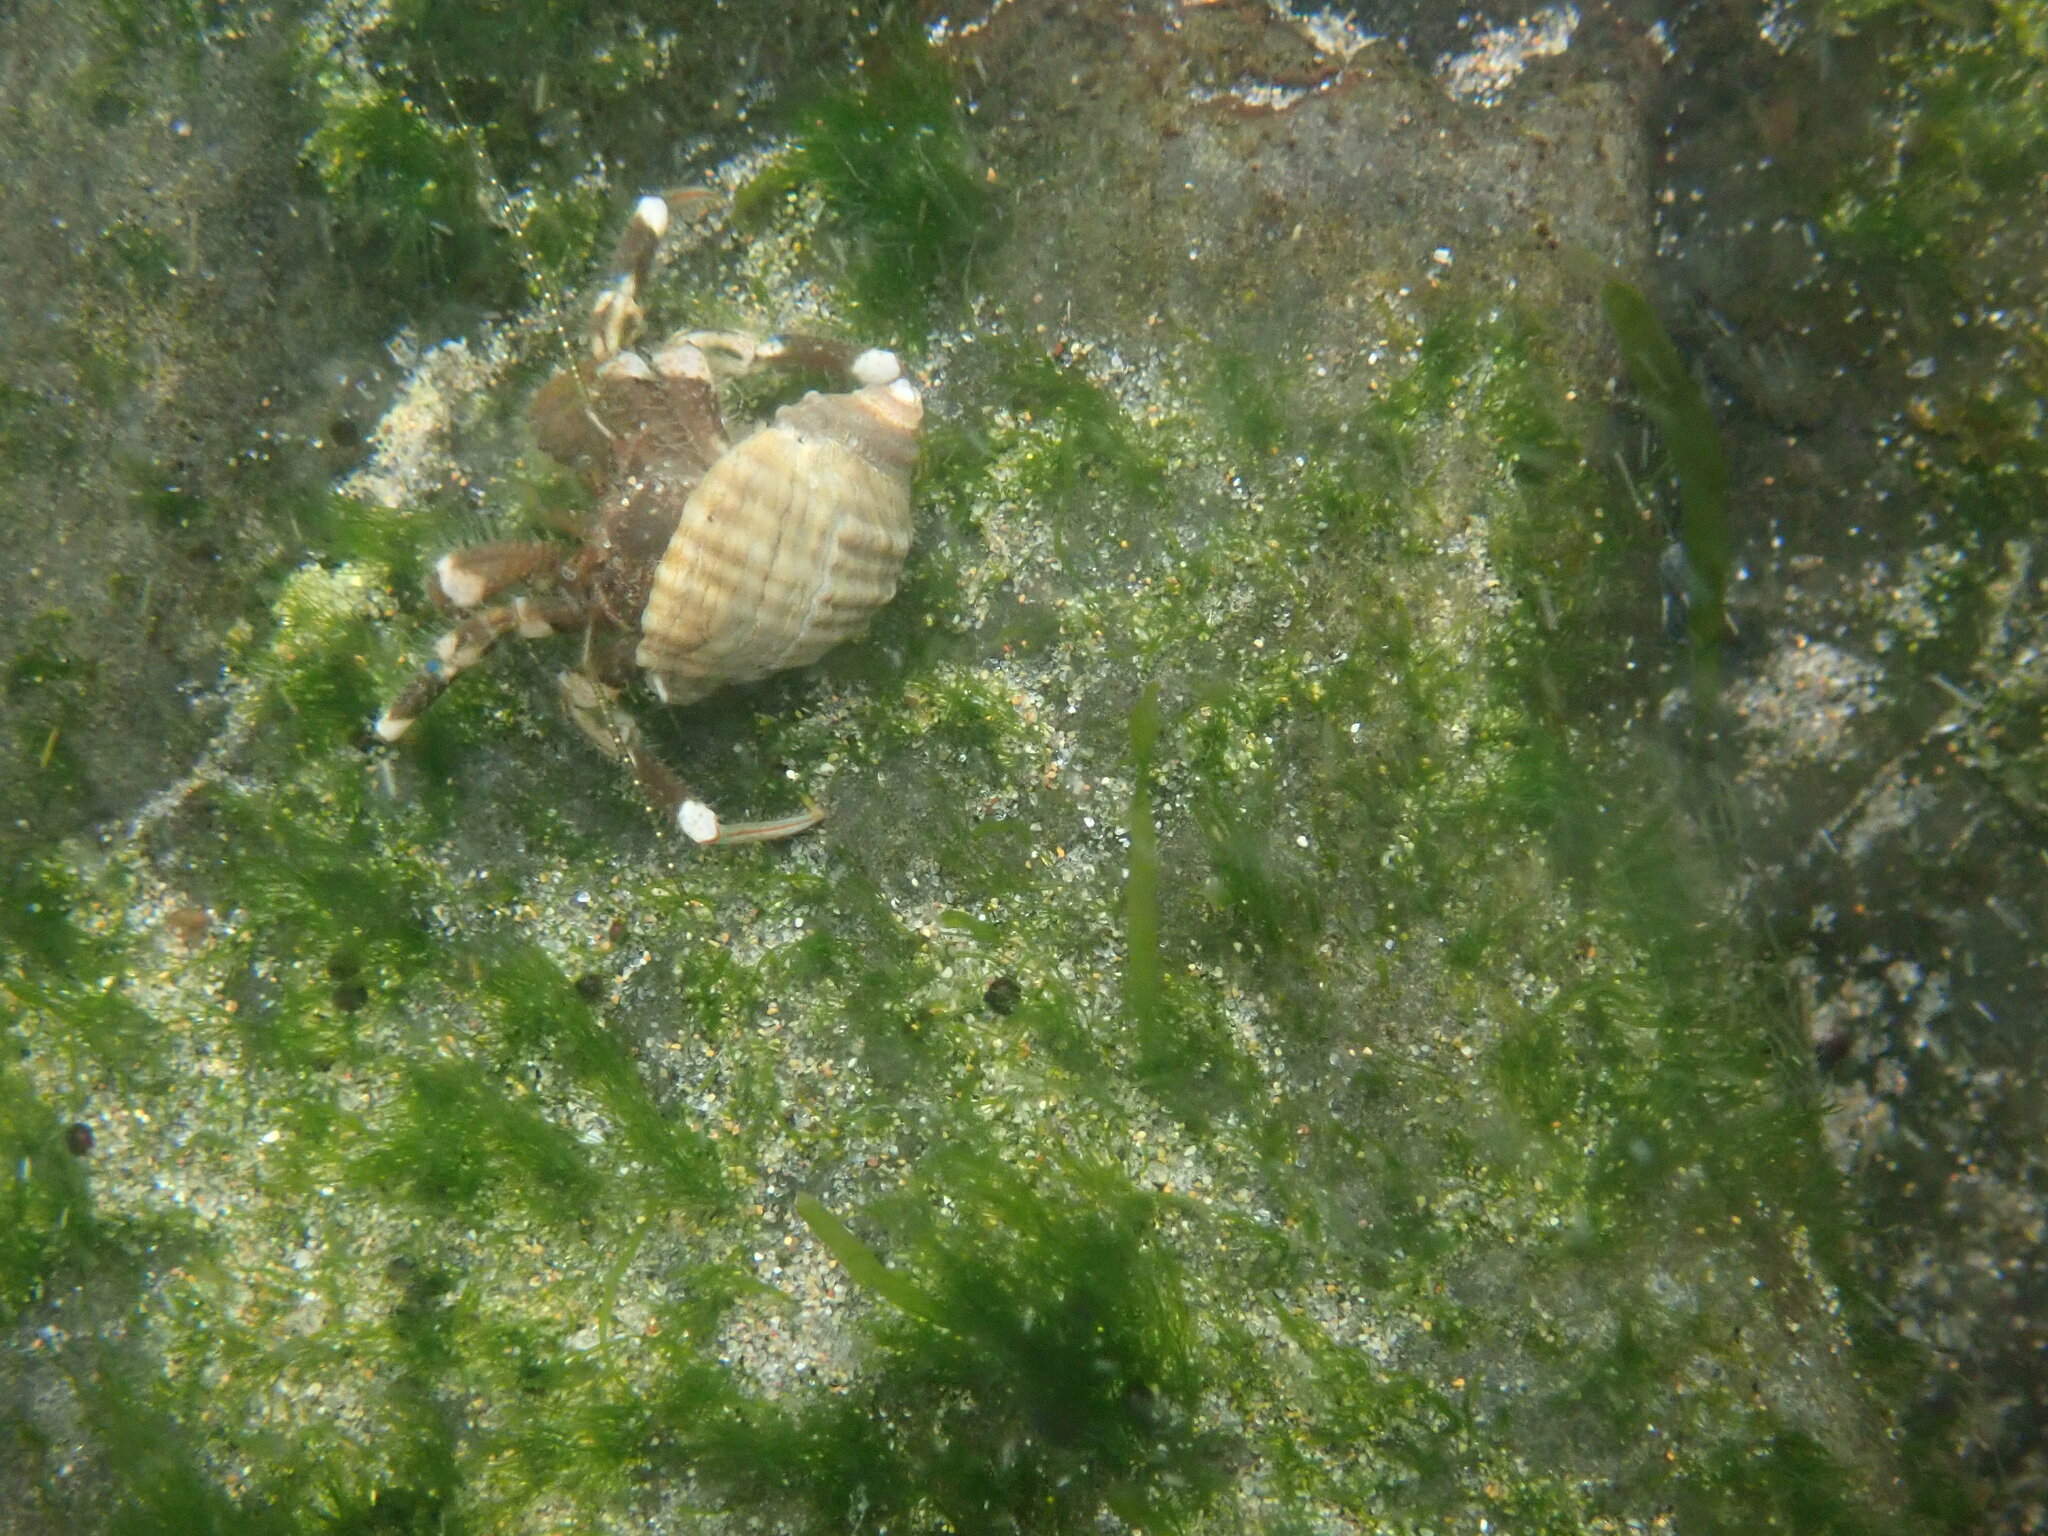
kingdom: Animalia
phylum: Arthropoda
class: Malacostraca
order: Decapoda
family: Paguridae
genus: Pagurus
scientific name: Pagurus hirsutiusculus
